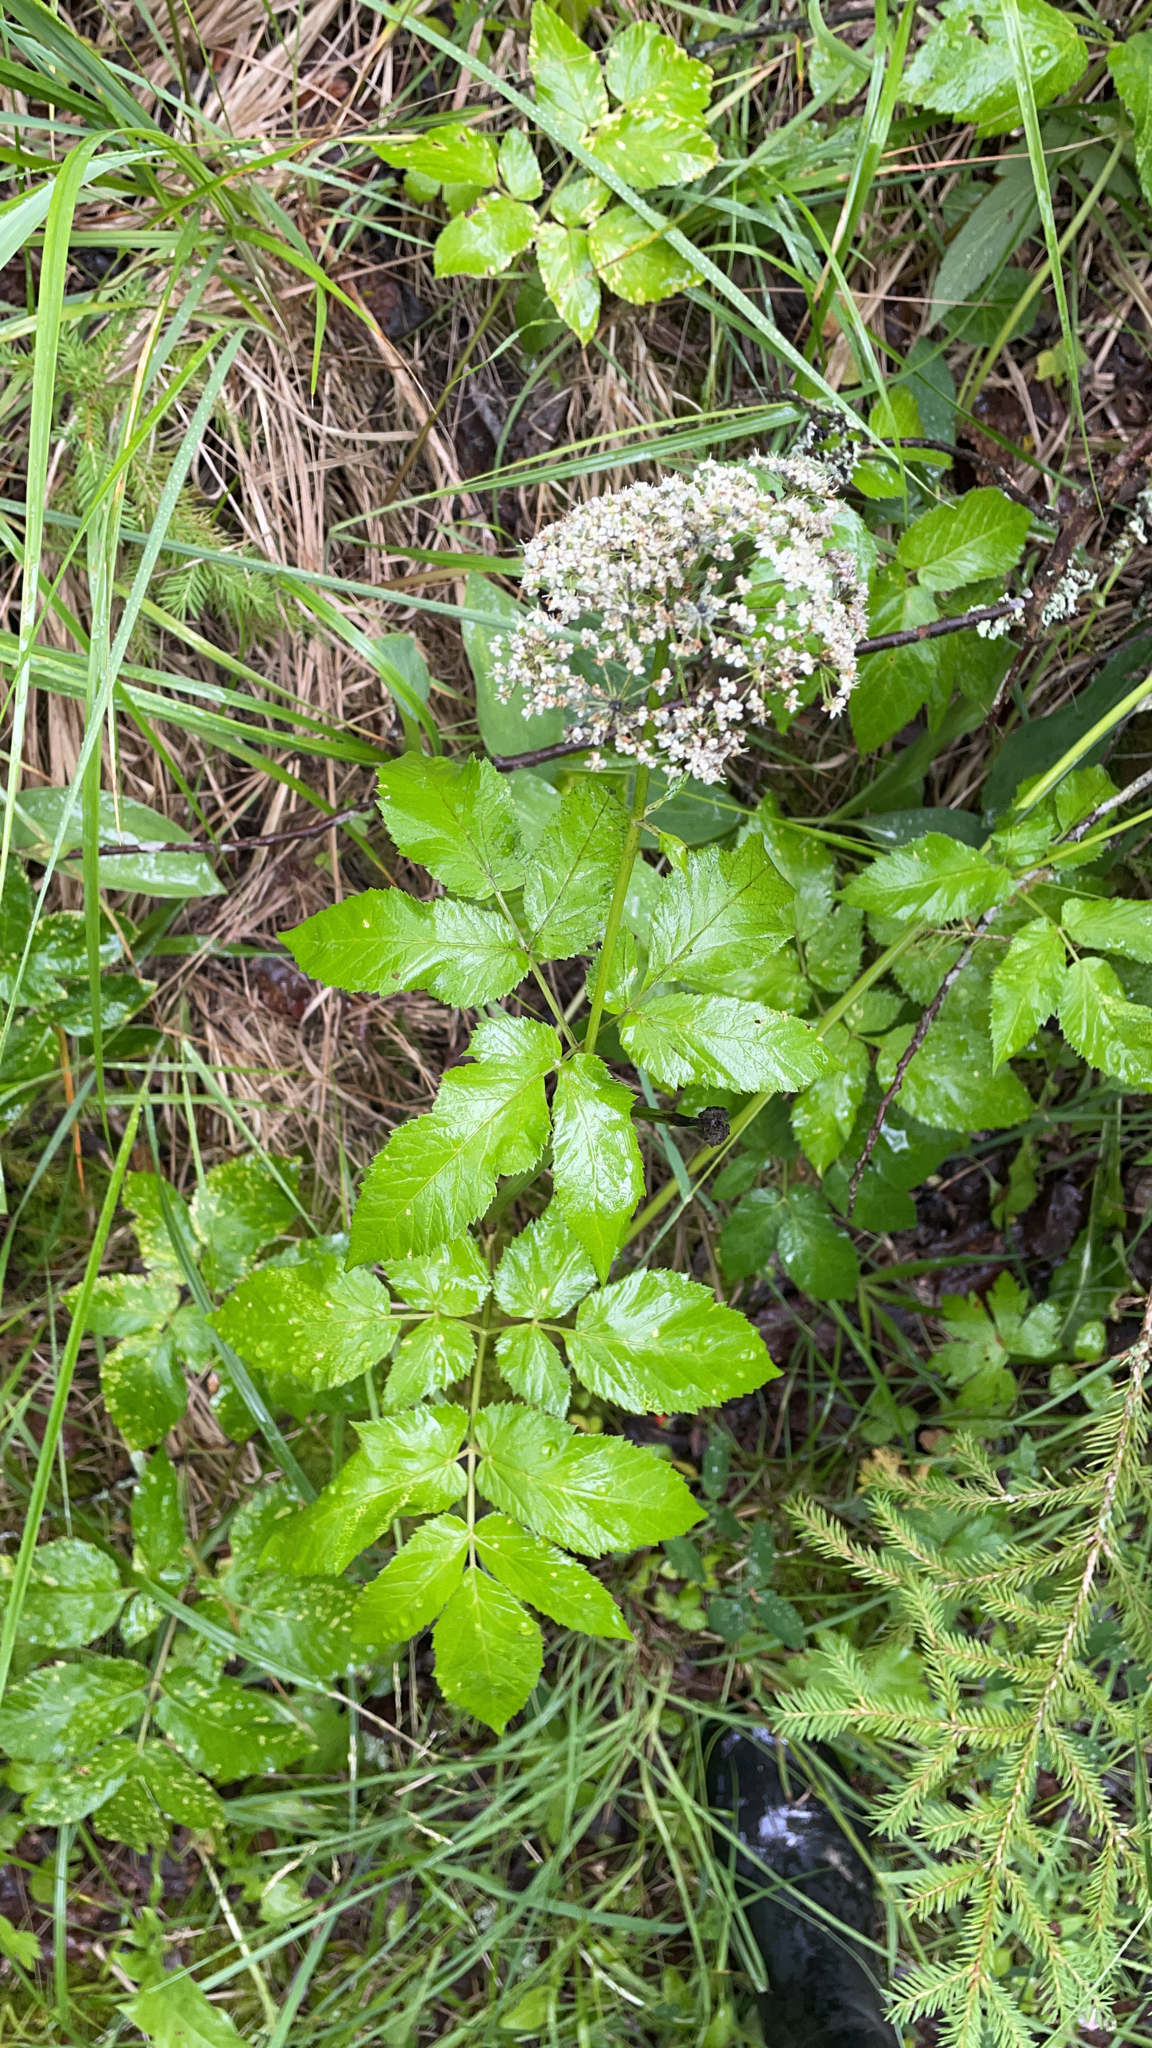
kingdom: Plantae
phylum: Tracheophyta
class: Magnoliopsida
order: Apiales
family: Apiaceae
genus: Aegopodium
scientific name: Aegopodium podagraria
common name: Ground-elder
